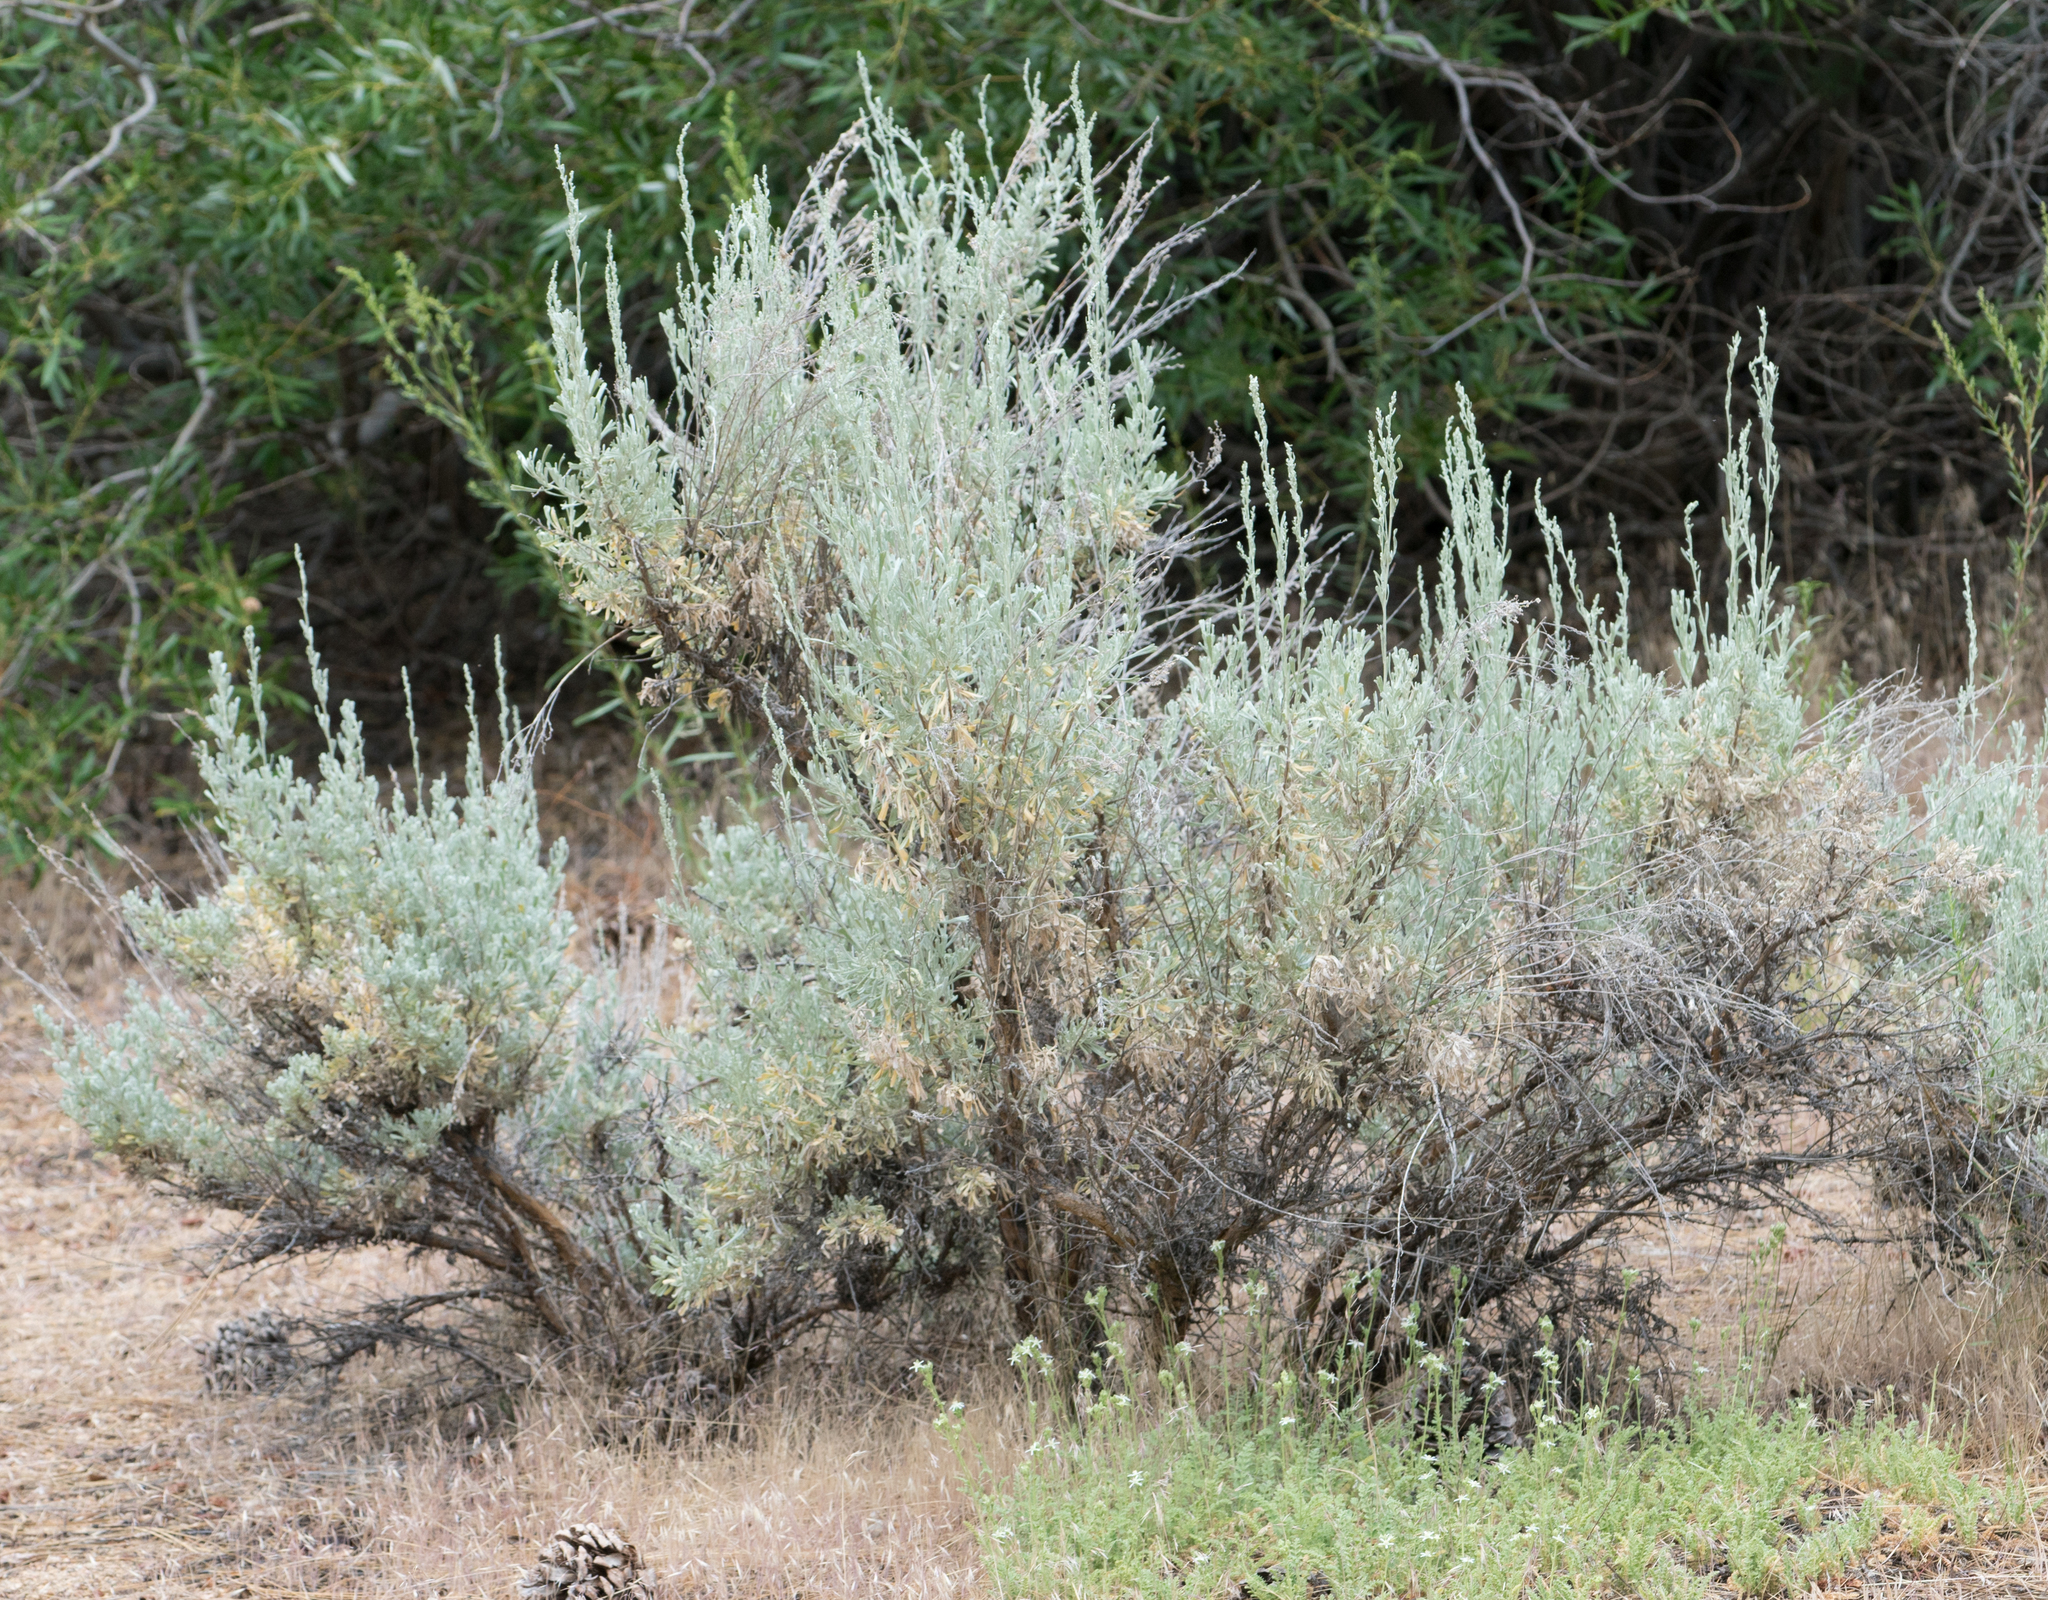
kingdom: Plantae
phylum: Tracheophyta
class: Magnoliopsida
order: Asterales
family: Asteraceae
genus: Artemisia
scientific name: Artemisia tridentata
